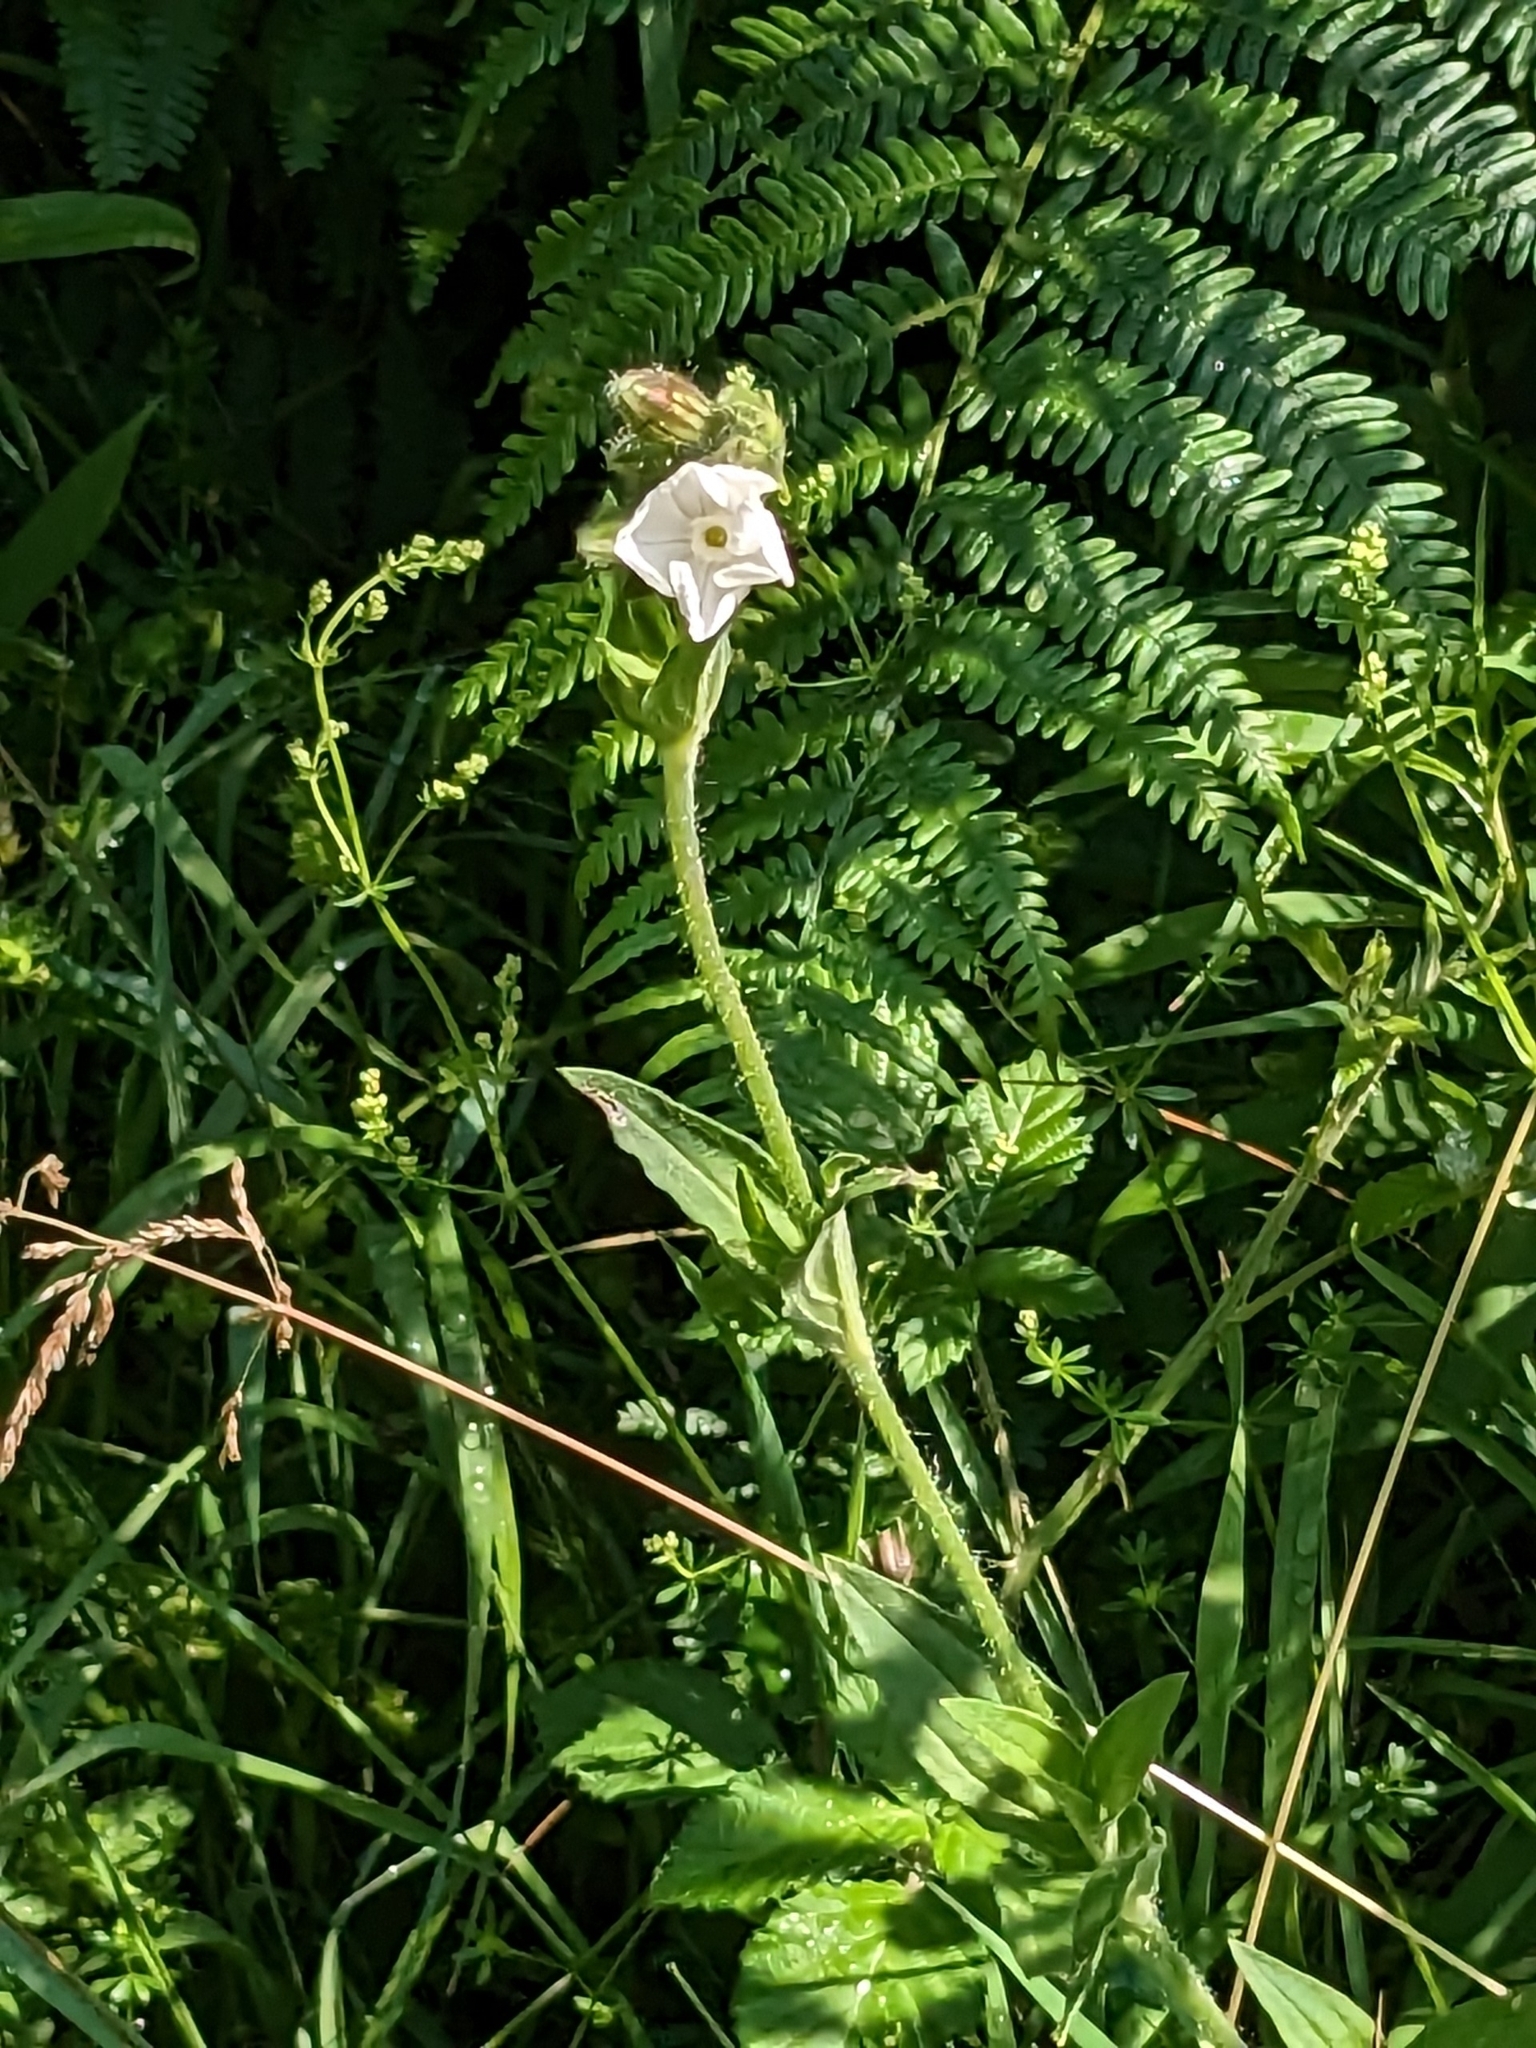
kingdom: Plantae
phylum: Tracheophyta
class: Magnoliopsida
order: Caryophyllales
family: Caryophyllaceae
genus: Silene
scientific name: Silene latifolia
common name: White campion
